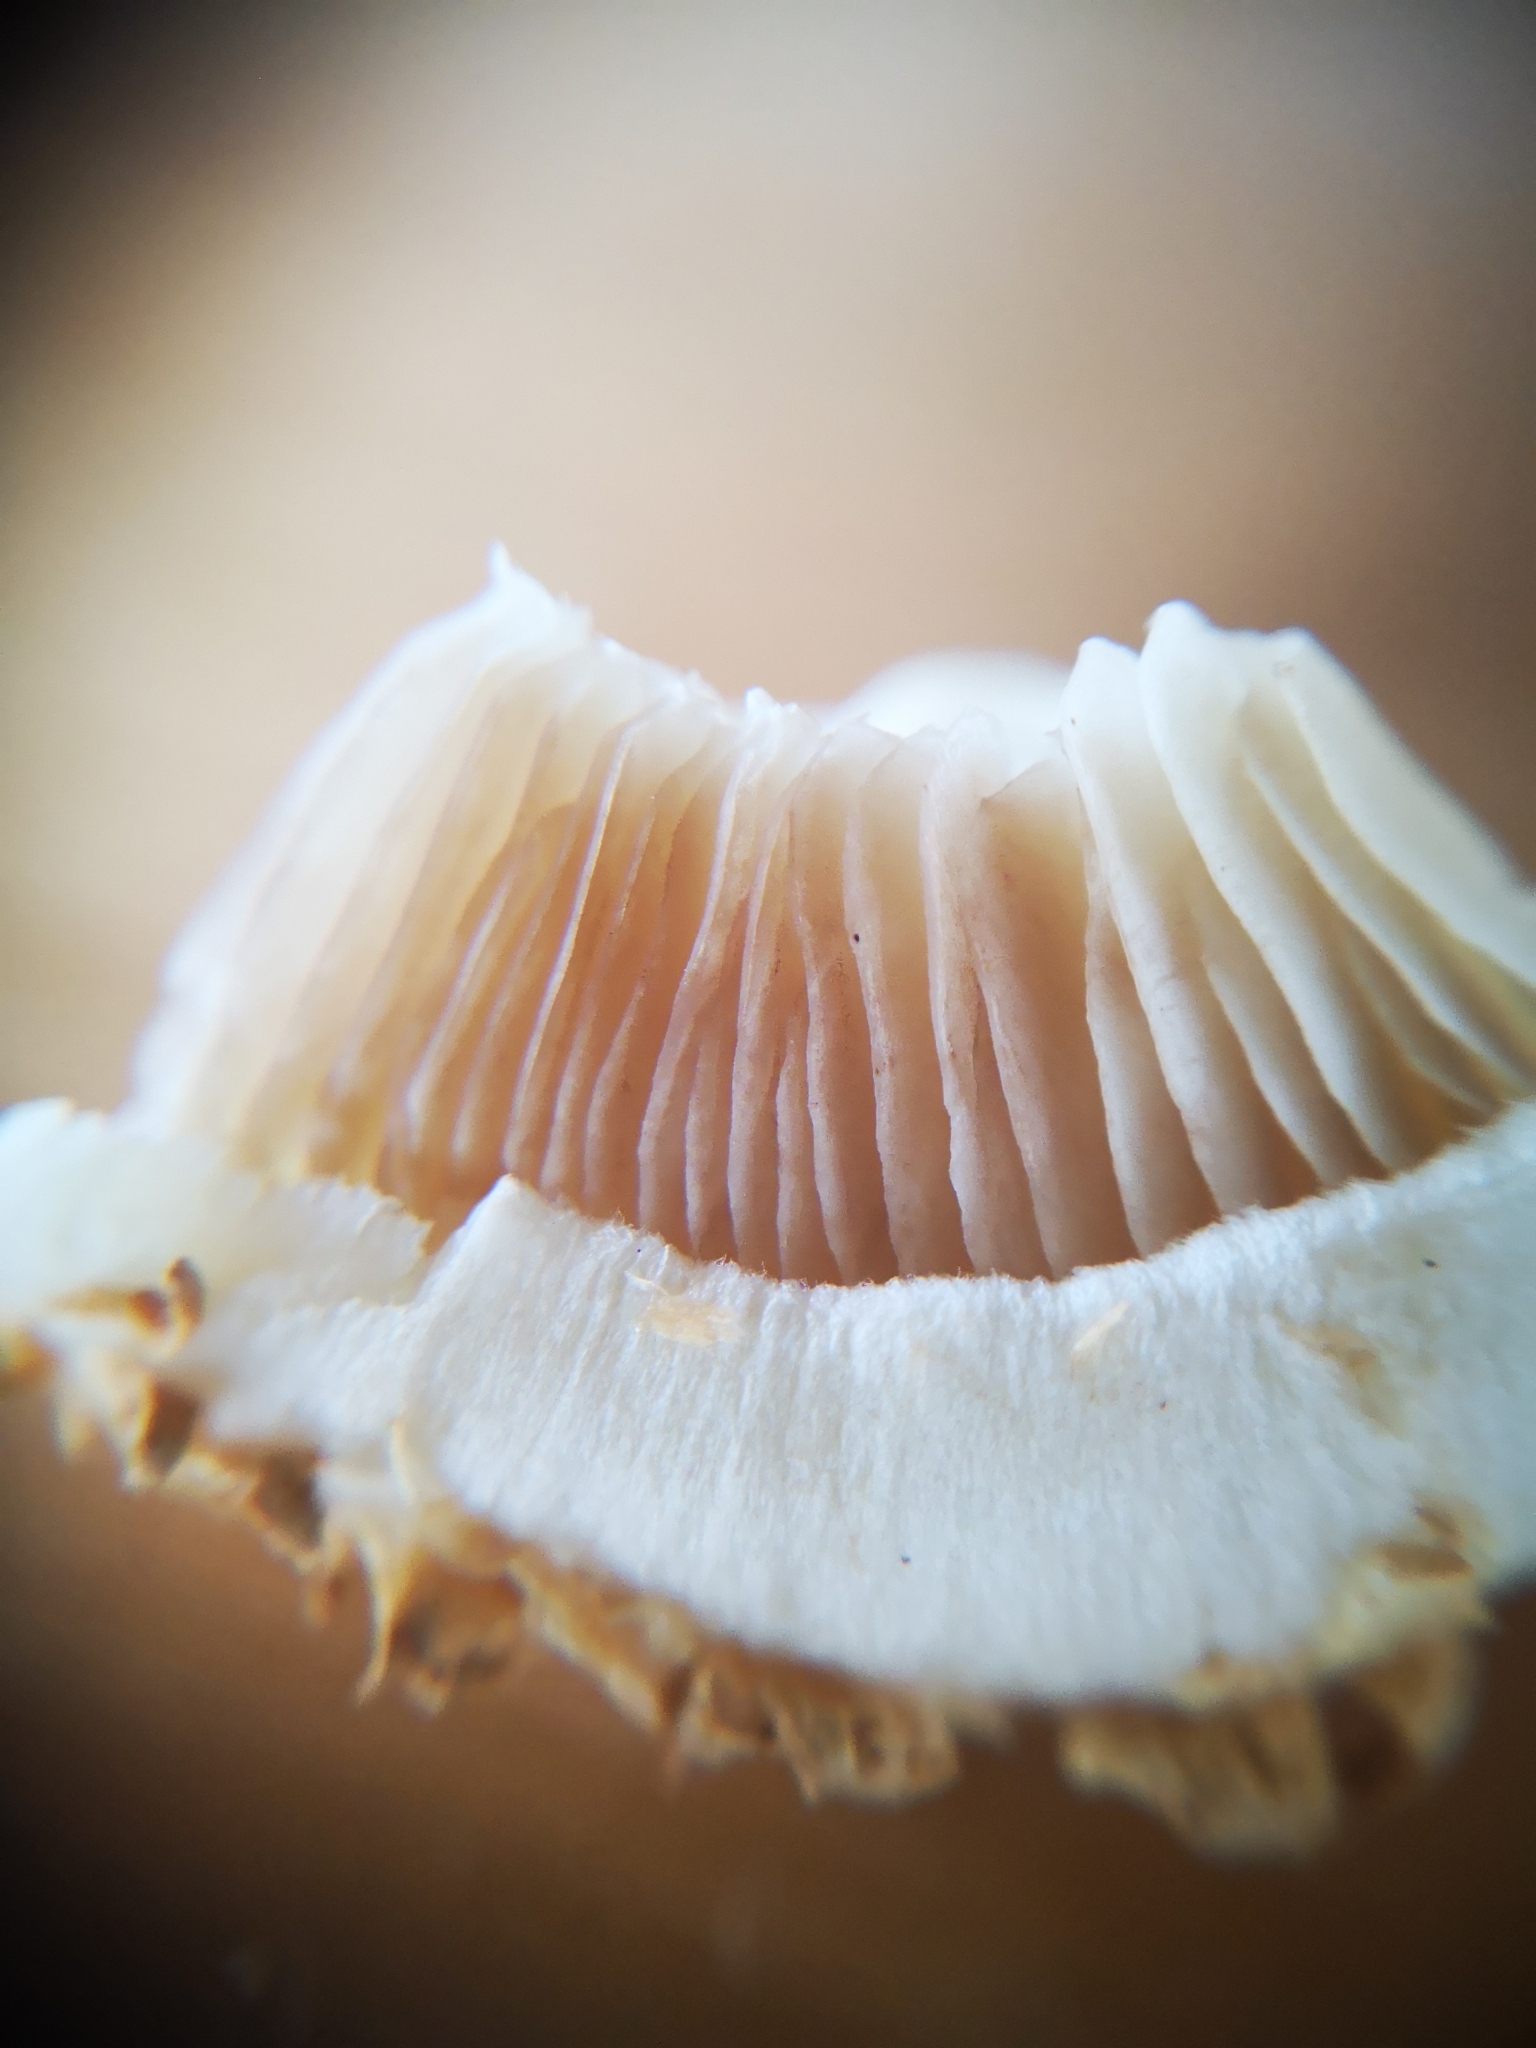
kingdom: Fungi
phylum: Basidiomycota
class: Agaricomycetes
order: Agaricales
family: Strophariaceae
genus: Pholiota
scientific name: Pholiota squarrosa
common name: Shaggy pholiota
